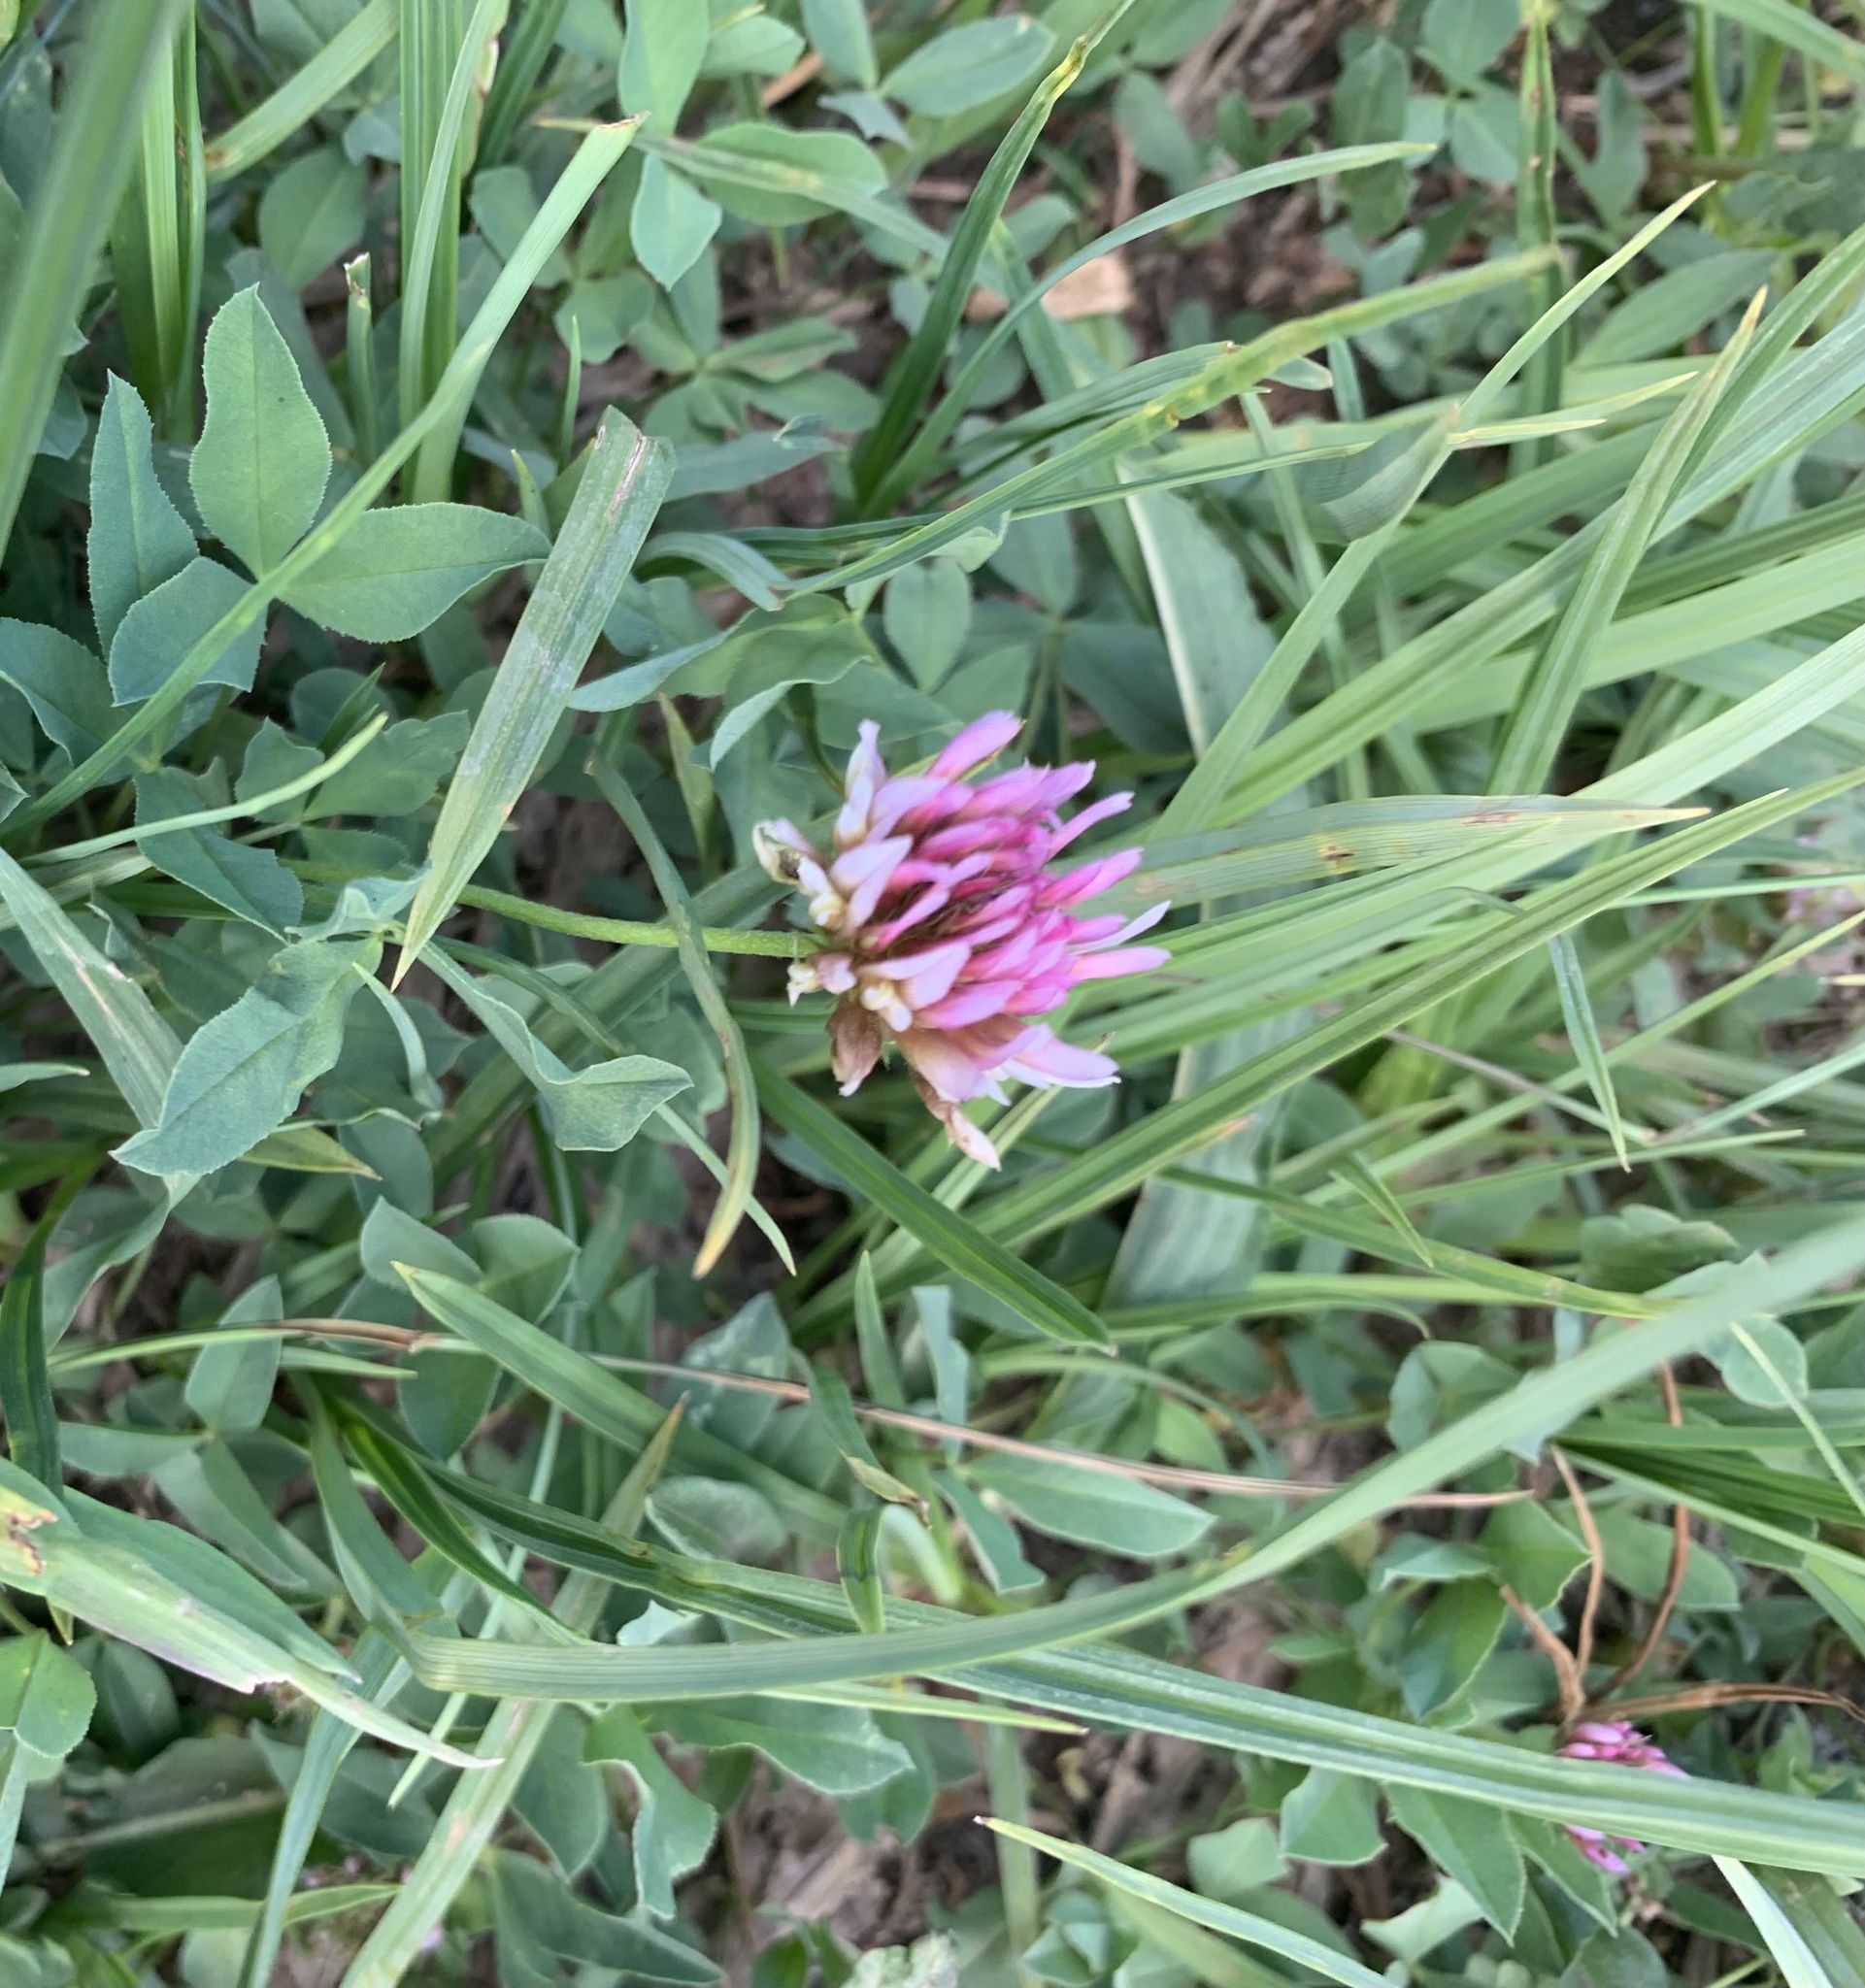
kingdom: Plantae
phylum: Tracheophyta
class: Magnoliopsida
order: Fabales
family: Fabaceae
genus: Trifolium
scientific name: Trifolium longipes
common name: Long-stalk clover
